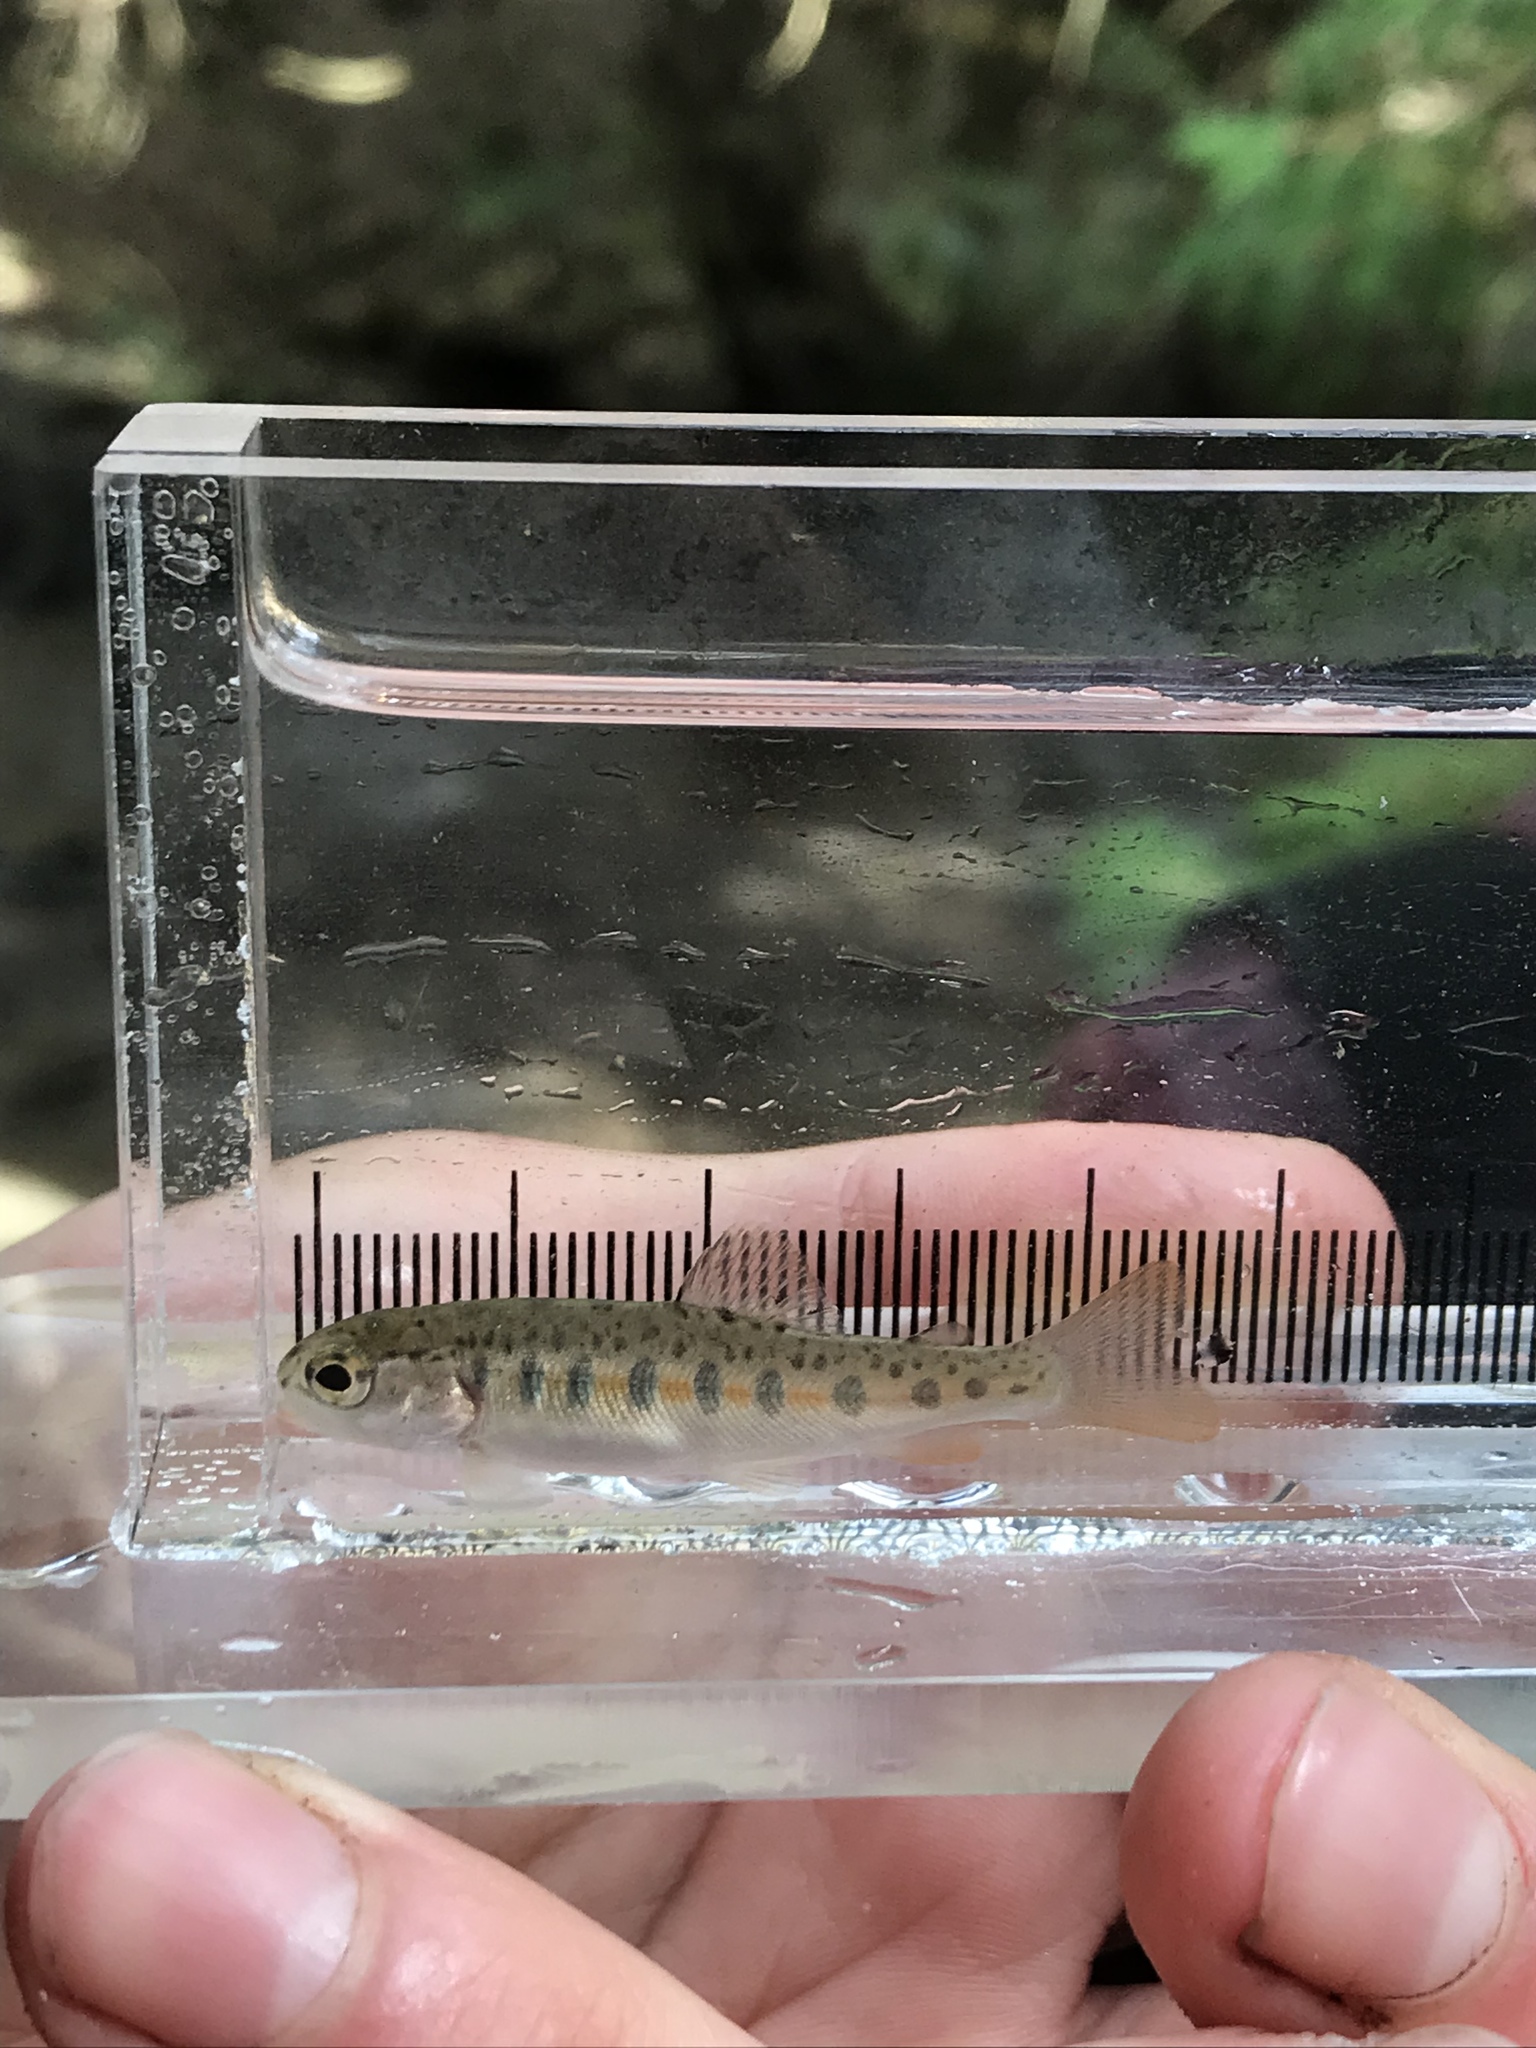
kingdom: Animalia
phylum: Chordata
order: Salmoniformes
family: Salmonidae
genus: Oncorhynchus
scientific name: Oncorhynchus mykiss
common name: Rainbow trout
